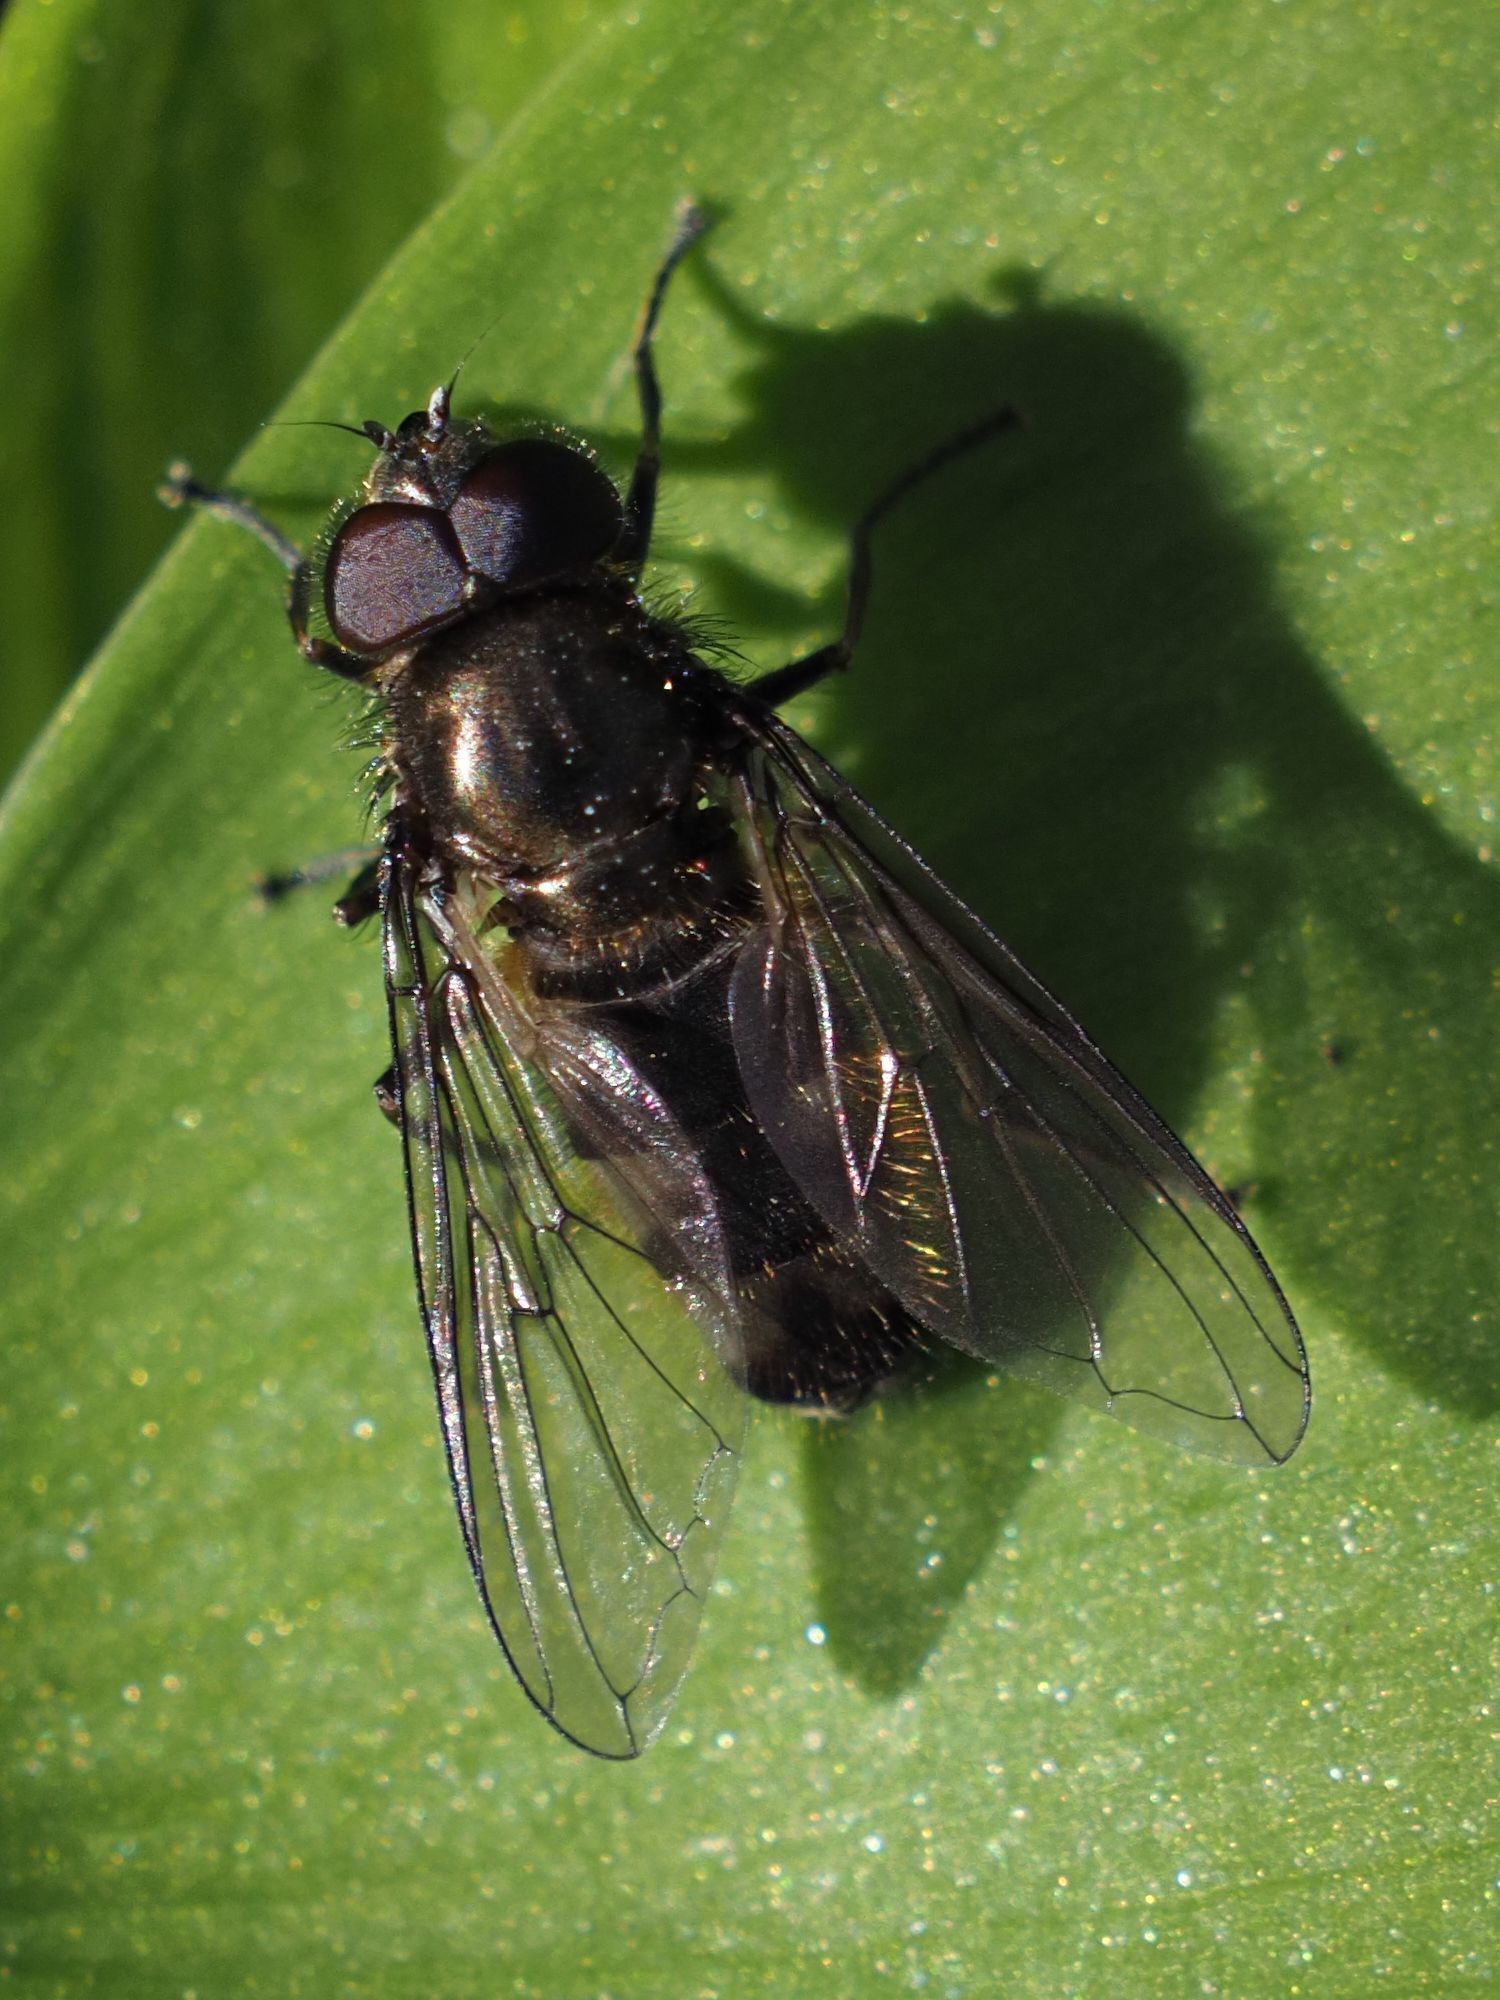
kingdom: Animalia
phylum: Arthropoda
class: Insecta
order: Diptera
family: Syrphidae
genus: Cheilosia
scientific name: Cheilosia fasciata
